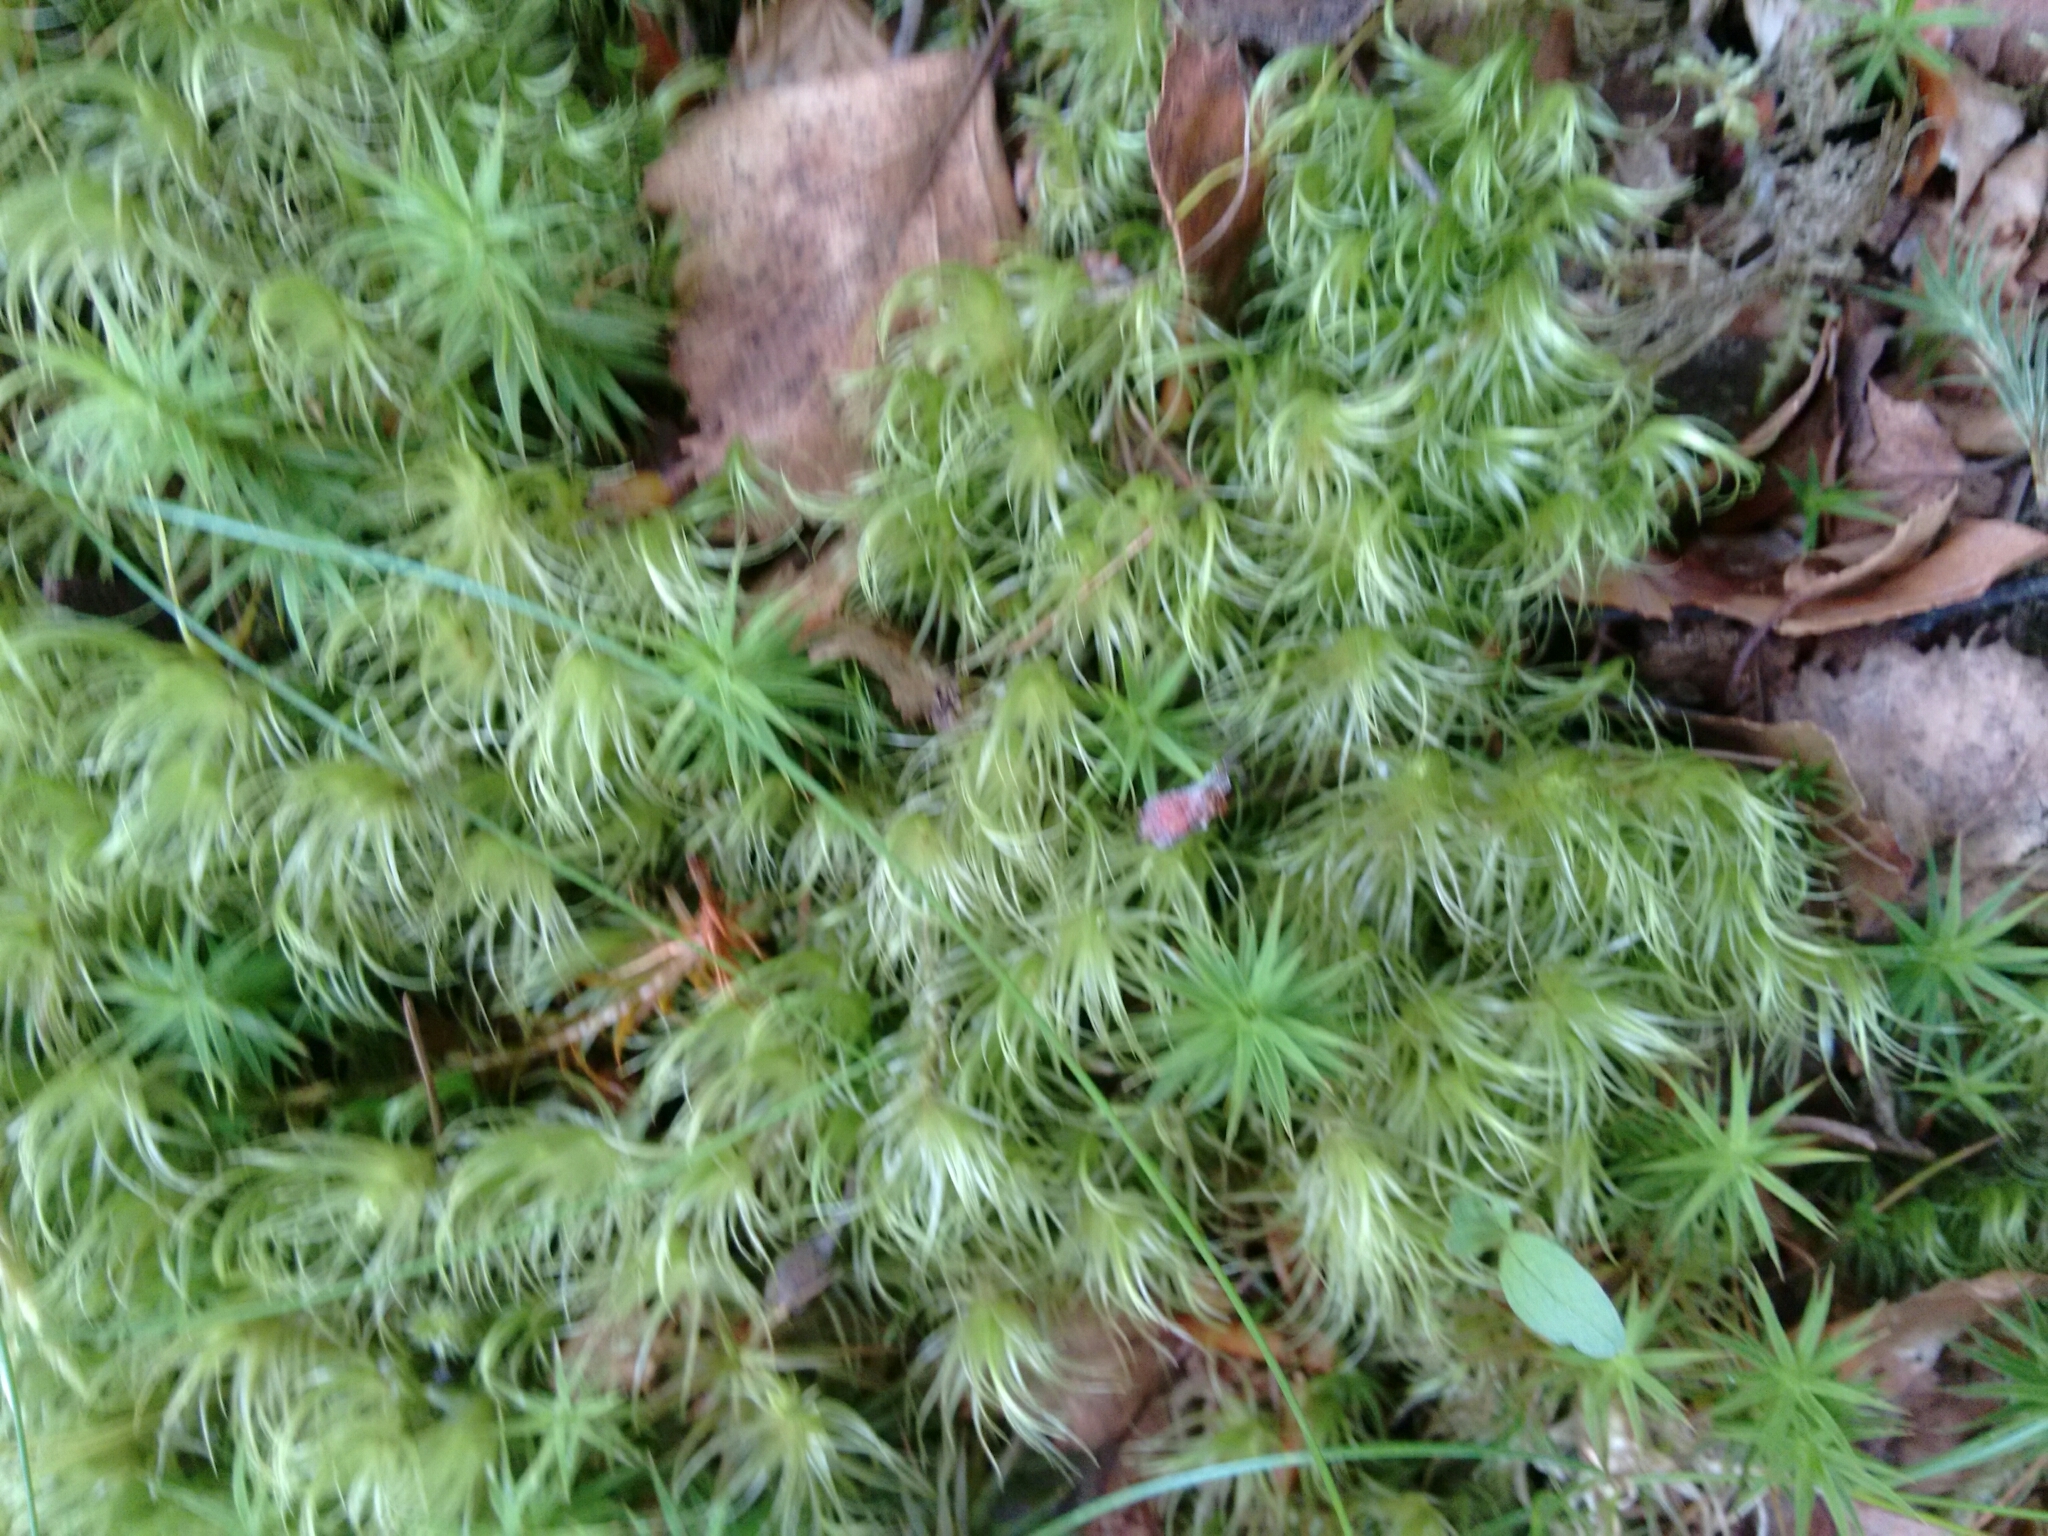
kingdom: Plantae
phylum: Bryophyta
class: Bryopsida
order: Dicranales
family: Dicranaceae
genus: Dicranum
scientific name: Dicranum scoparium
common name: Broom fork-moss
